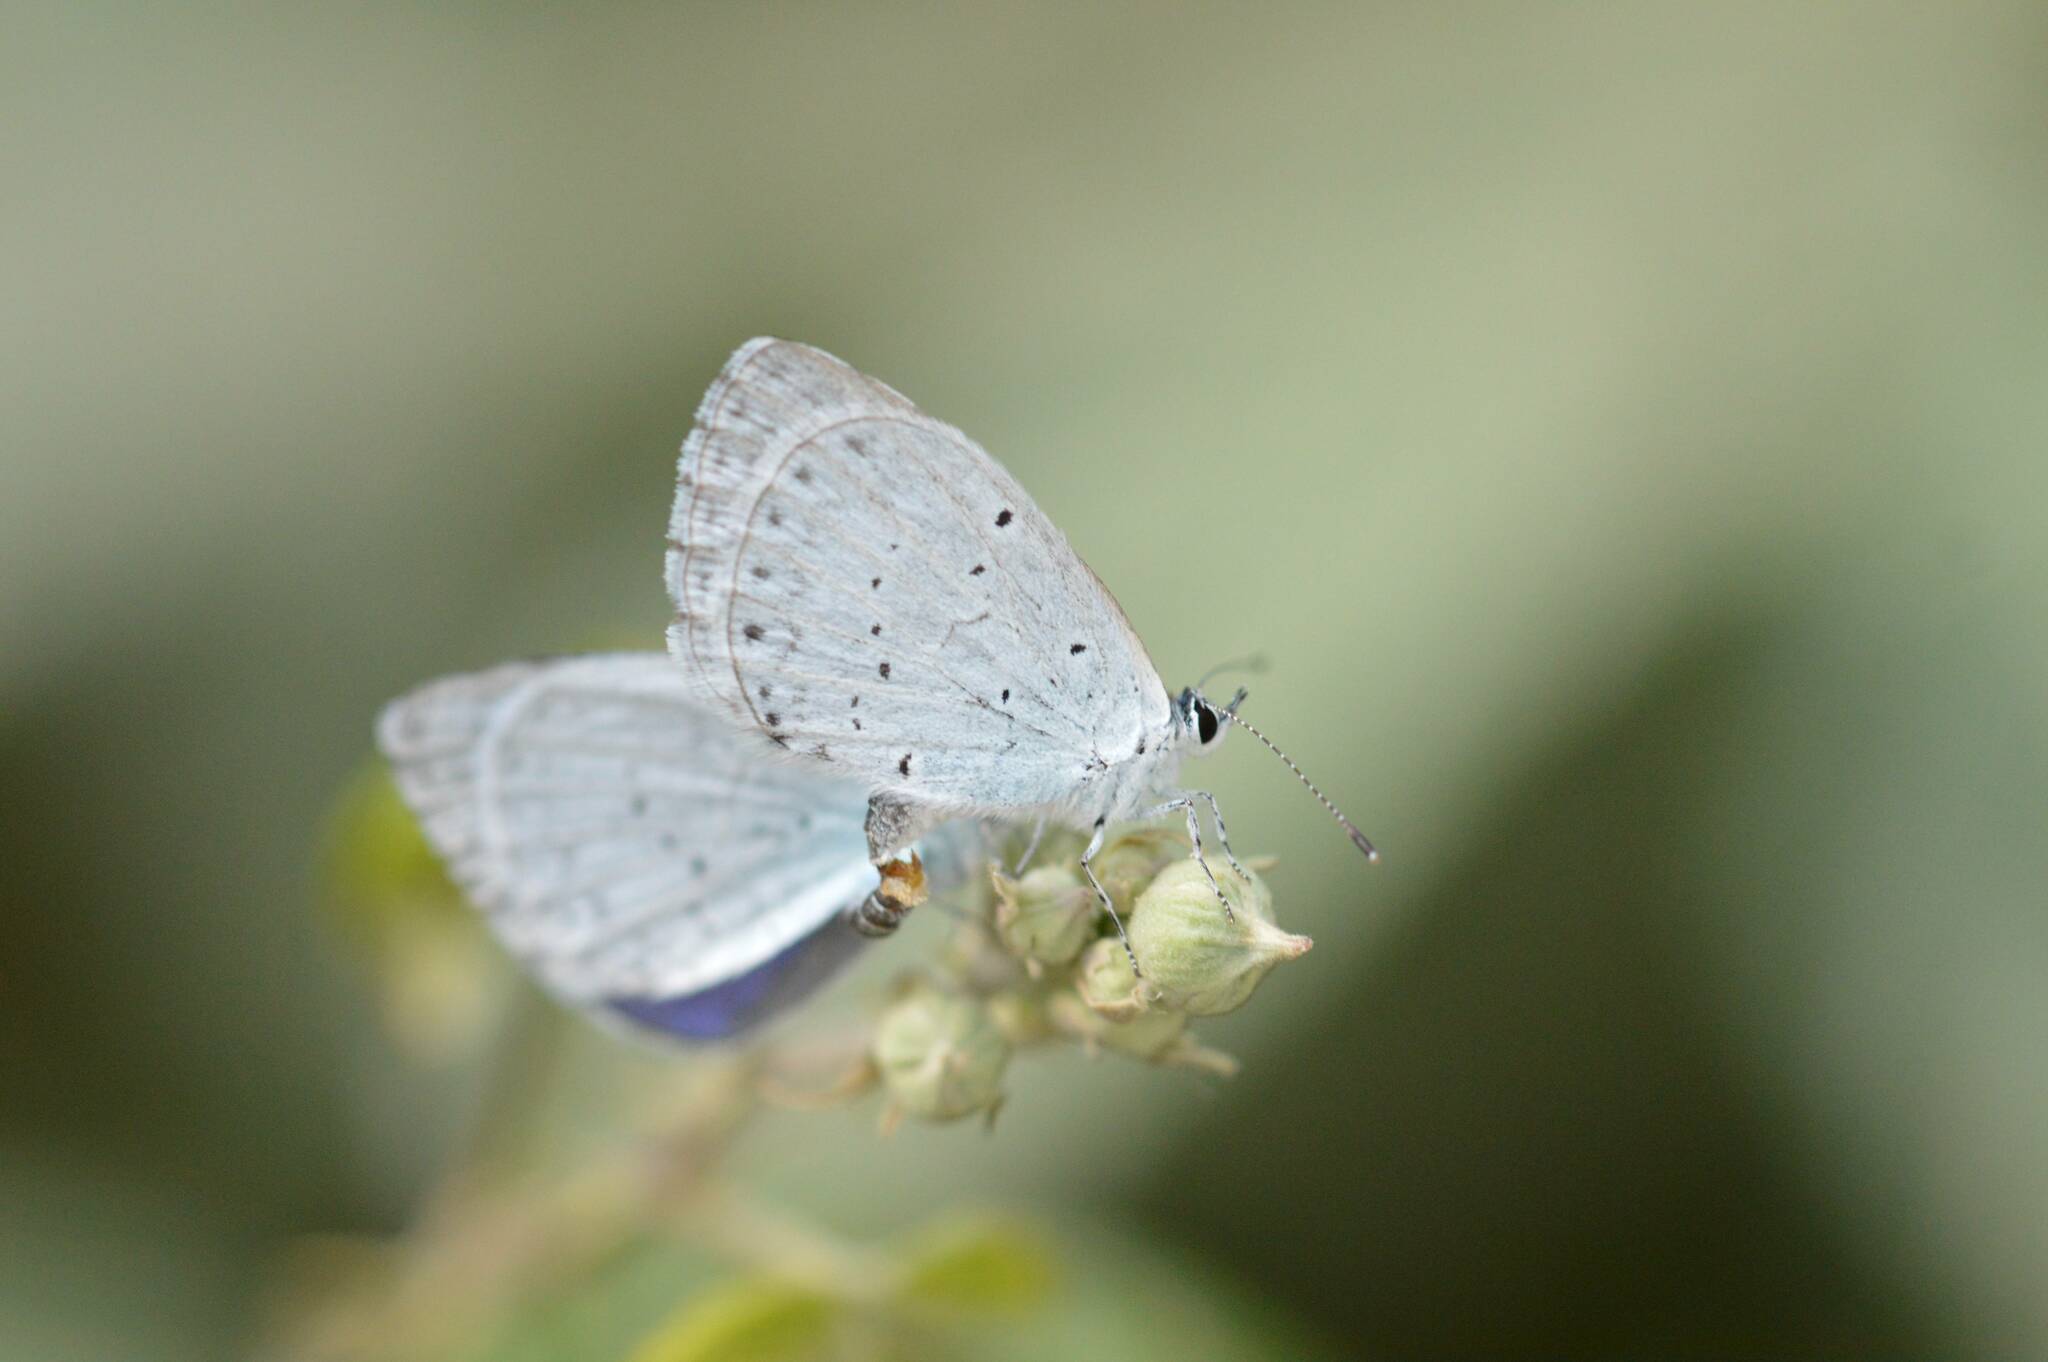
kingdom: Animalia
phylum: Arthropoda
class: Insecta
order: Lepidoptera
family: Lycaenidae
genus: Celastrina
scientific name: Celastrina argiolus
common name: Holly blue
